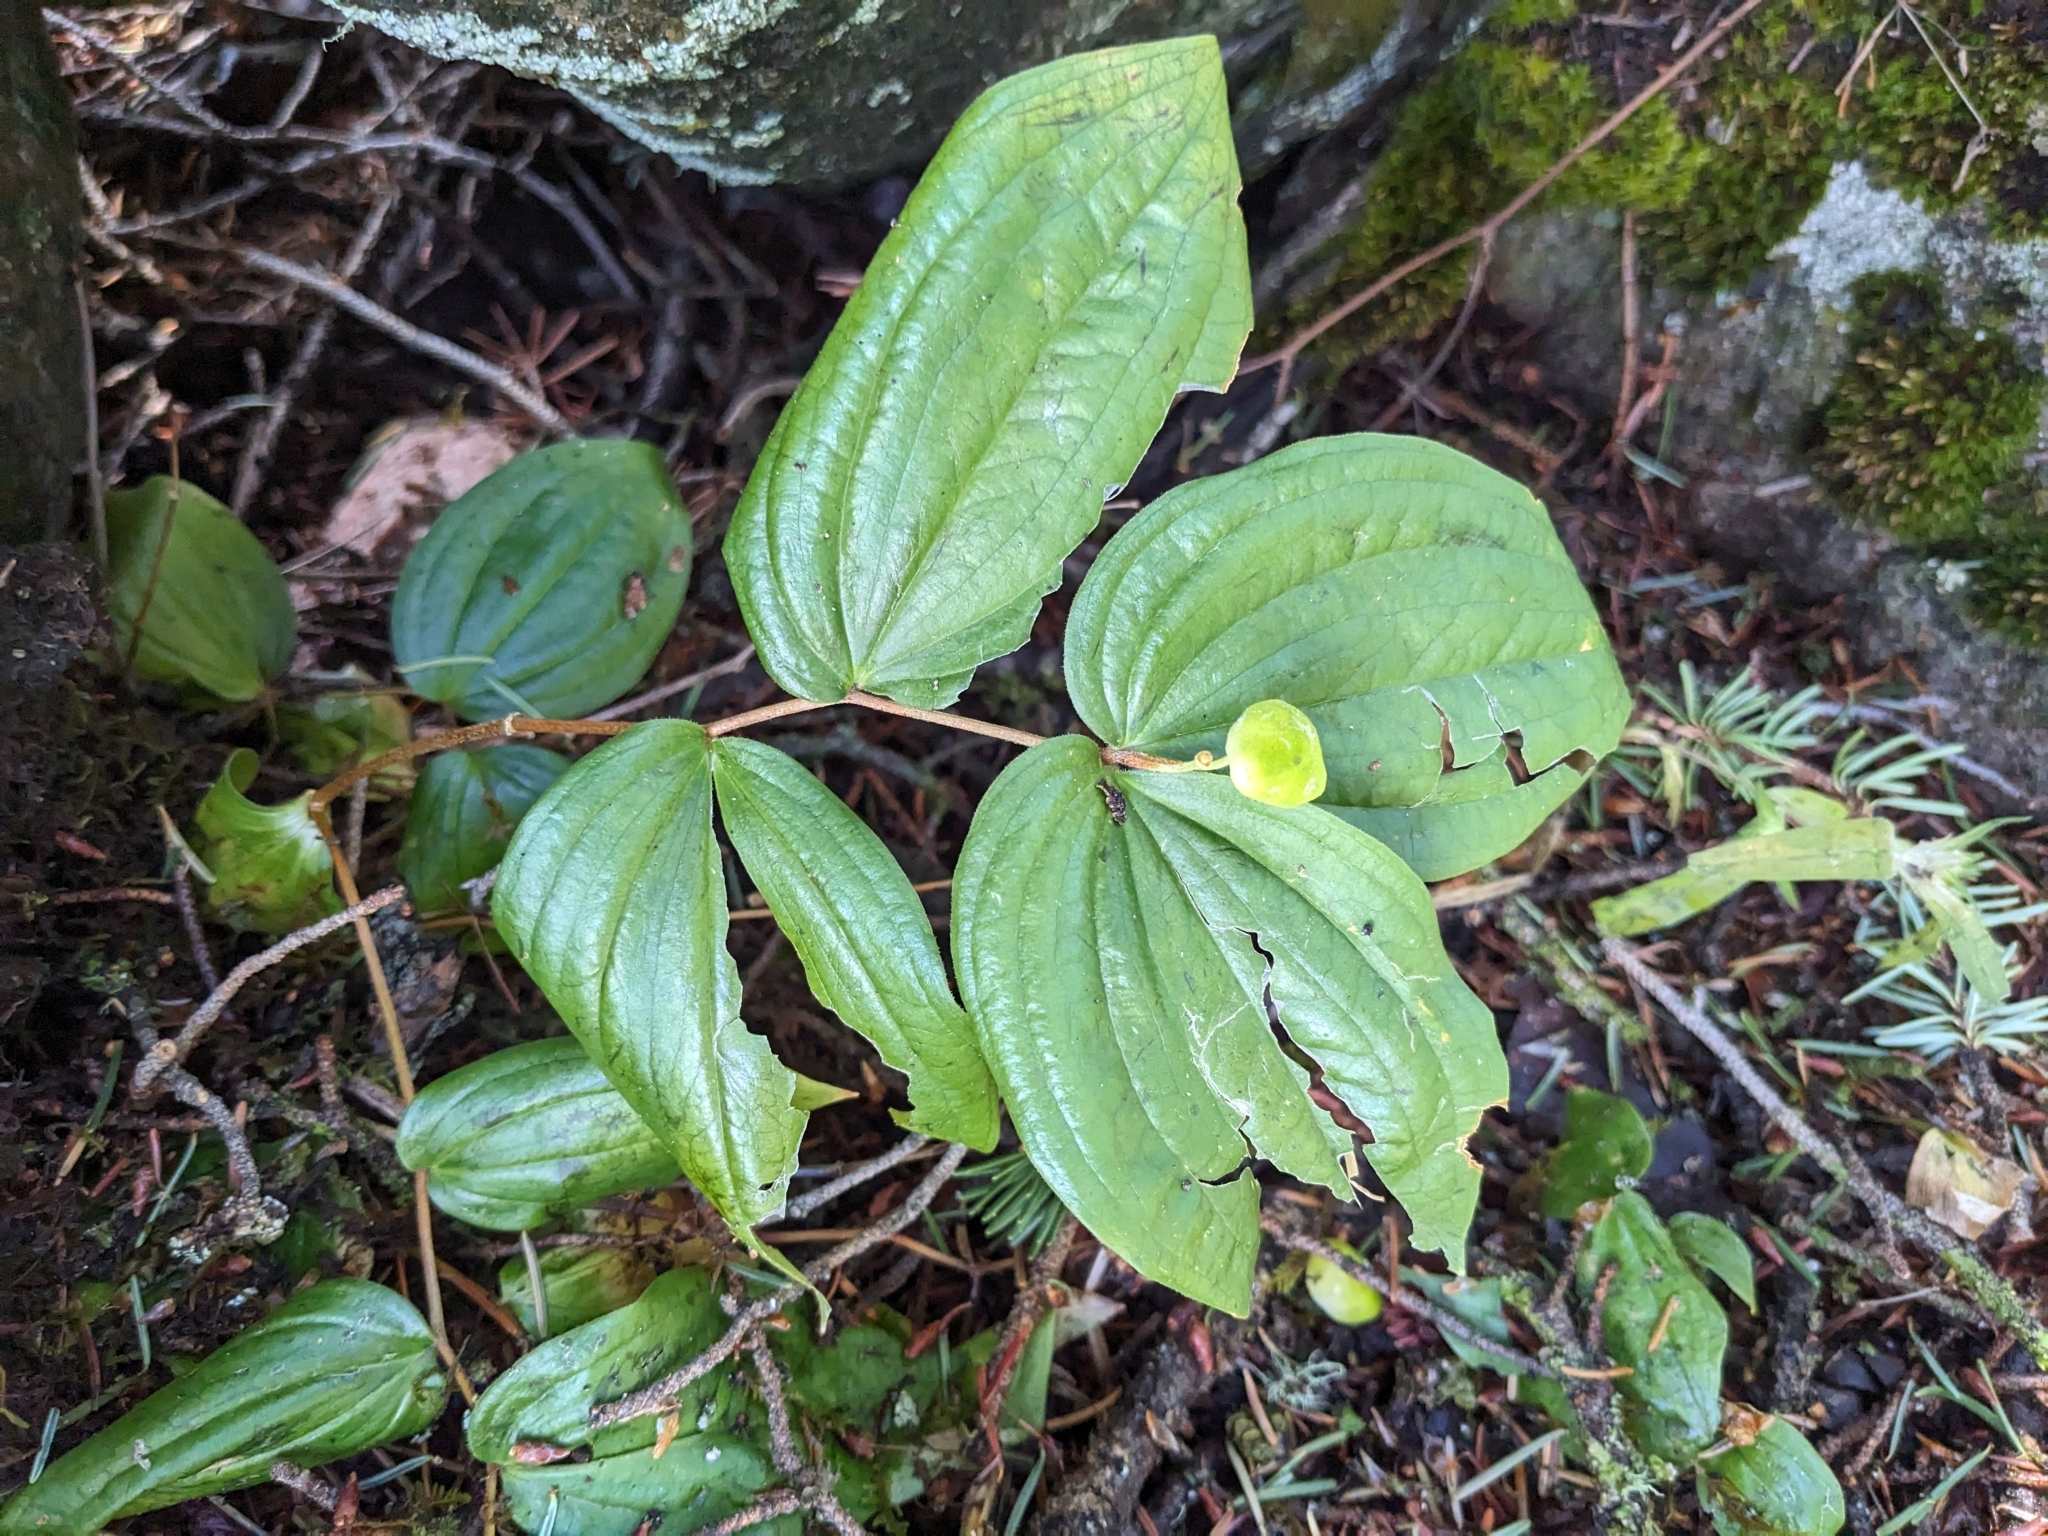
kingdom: Plantae
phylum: Tracheophyta
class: Liliopsida
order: Liliales
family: Liliaceae
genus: Prosartes
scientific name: Prosartes trachycarpa
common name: Rough-fruit fairy-bells
